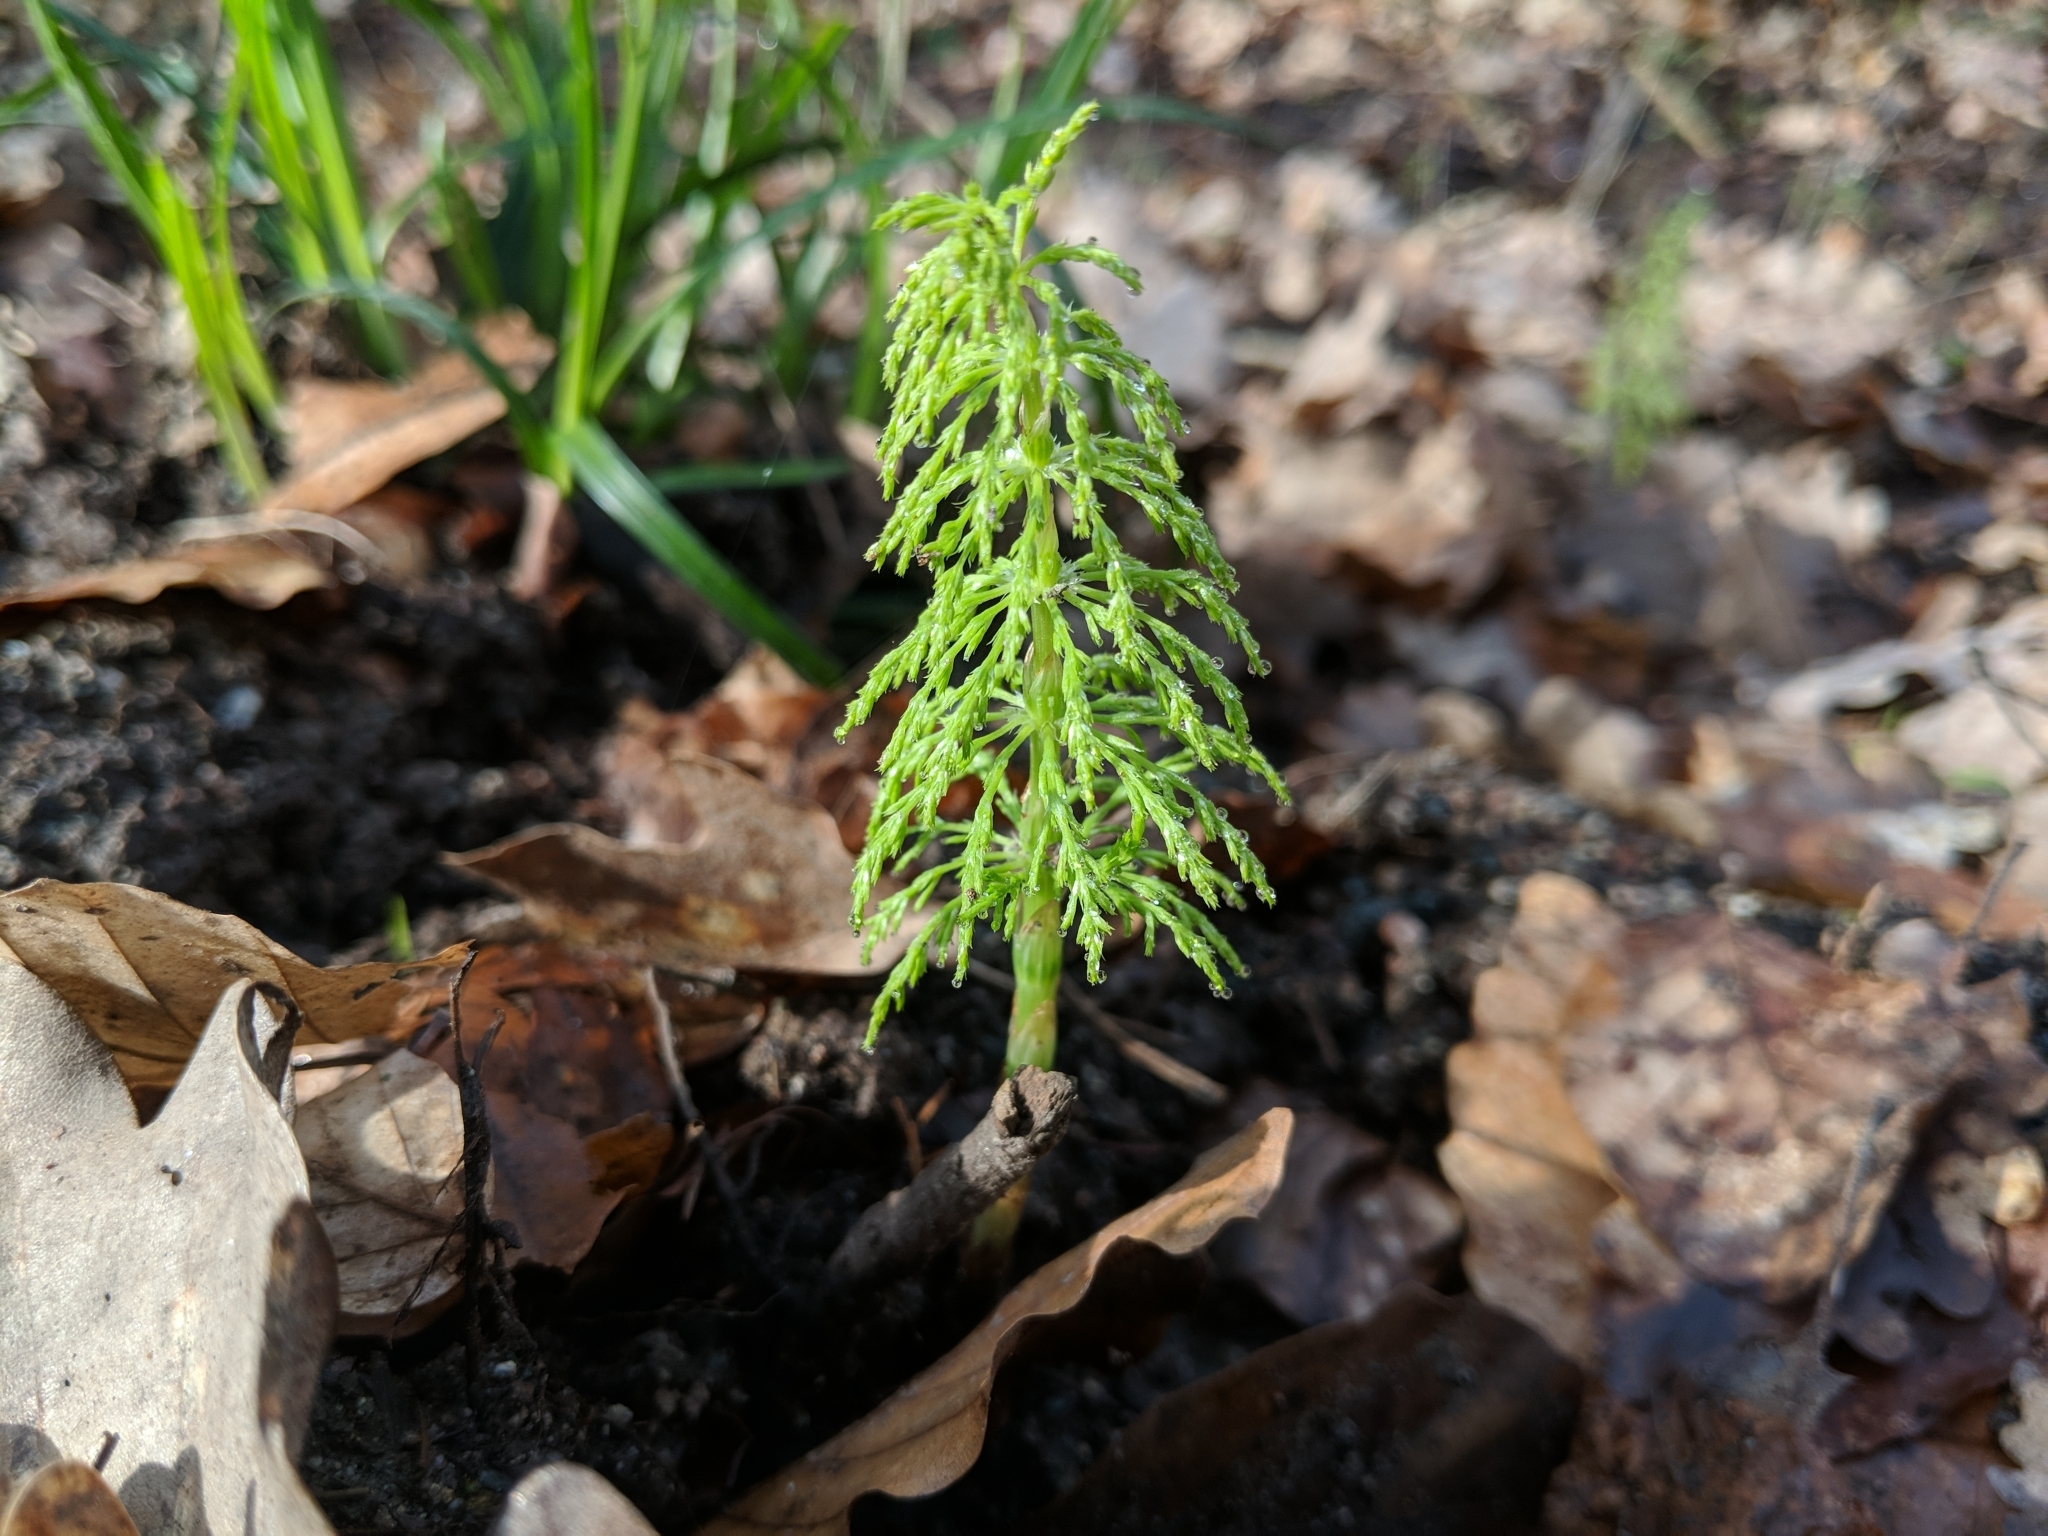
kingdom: Plantae
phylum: Tracheophyta
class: Polypodiopsida
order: Equisetales
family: Equisetaceae
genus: Equisetum
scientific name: Equisetum sylvaticum
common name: Wood horsetail
